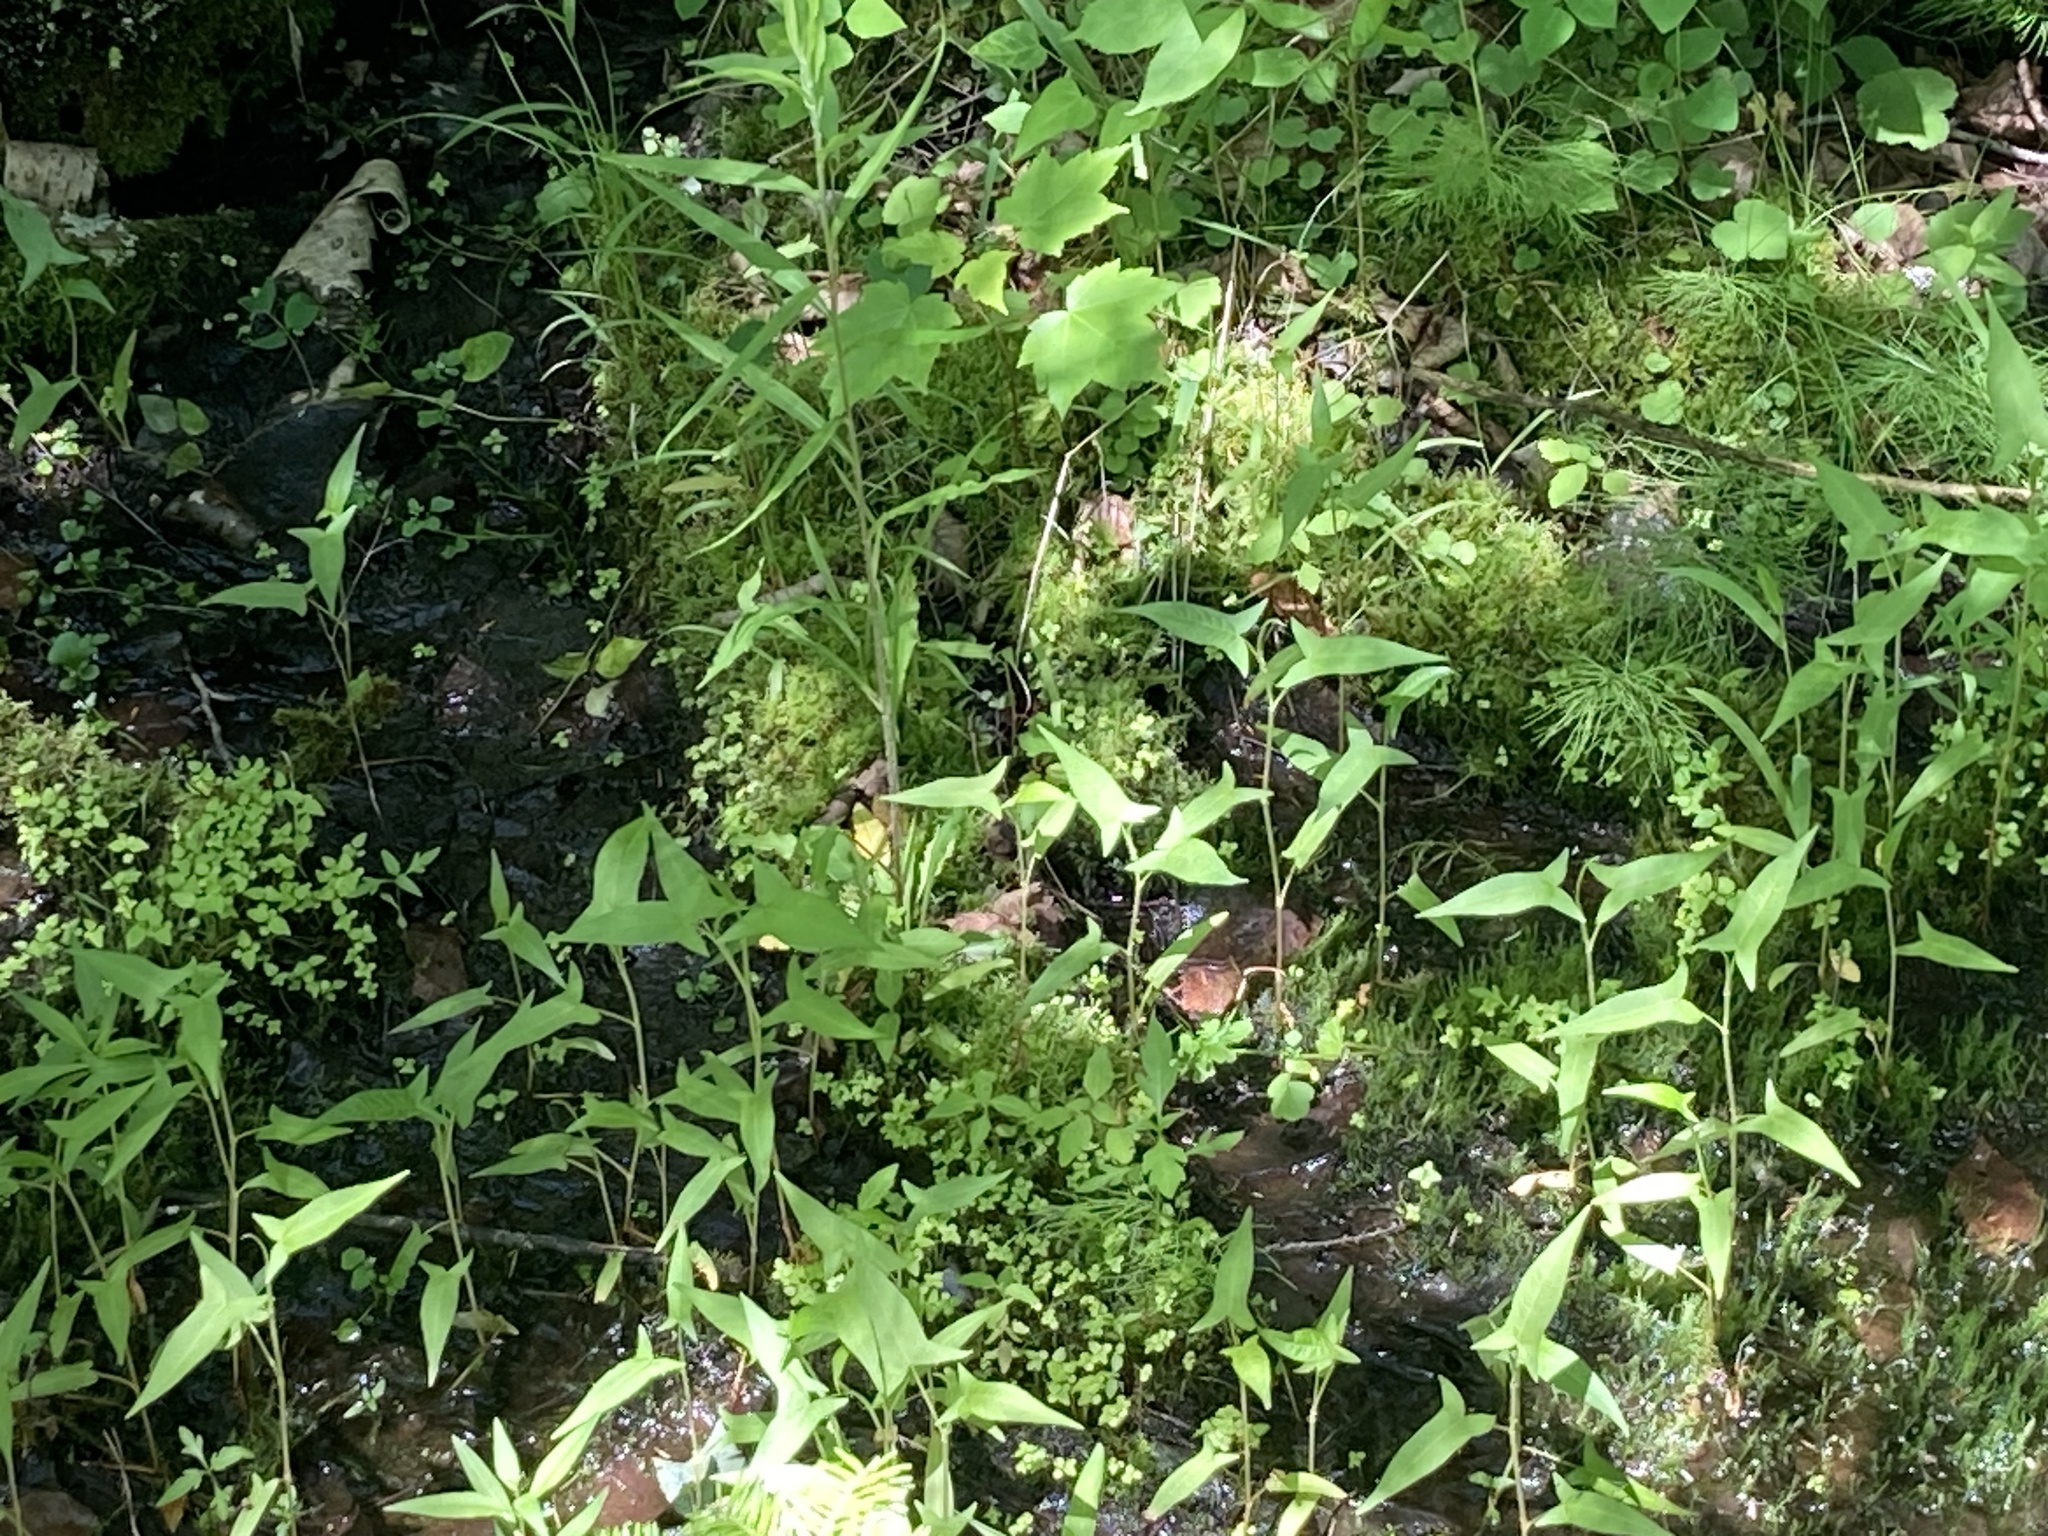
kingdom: Plantae
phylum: Tracheophyta
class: Magnoliopsida
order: Caryophyllales
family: Polygonaceae
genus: Persicaria
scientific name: Persicaria arifolia
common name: Halberd-leaved tear-thumb
